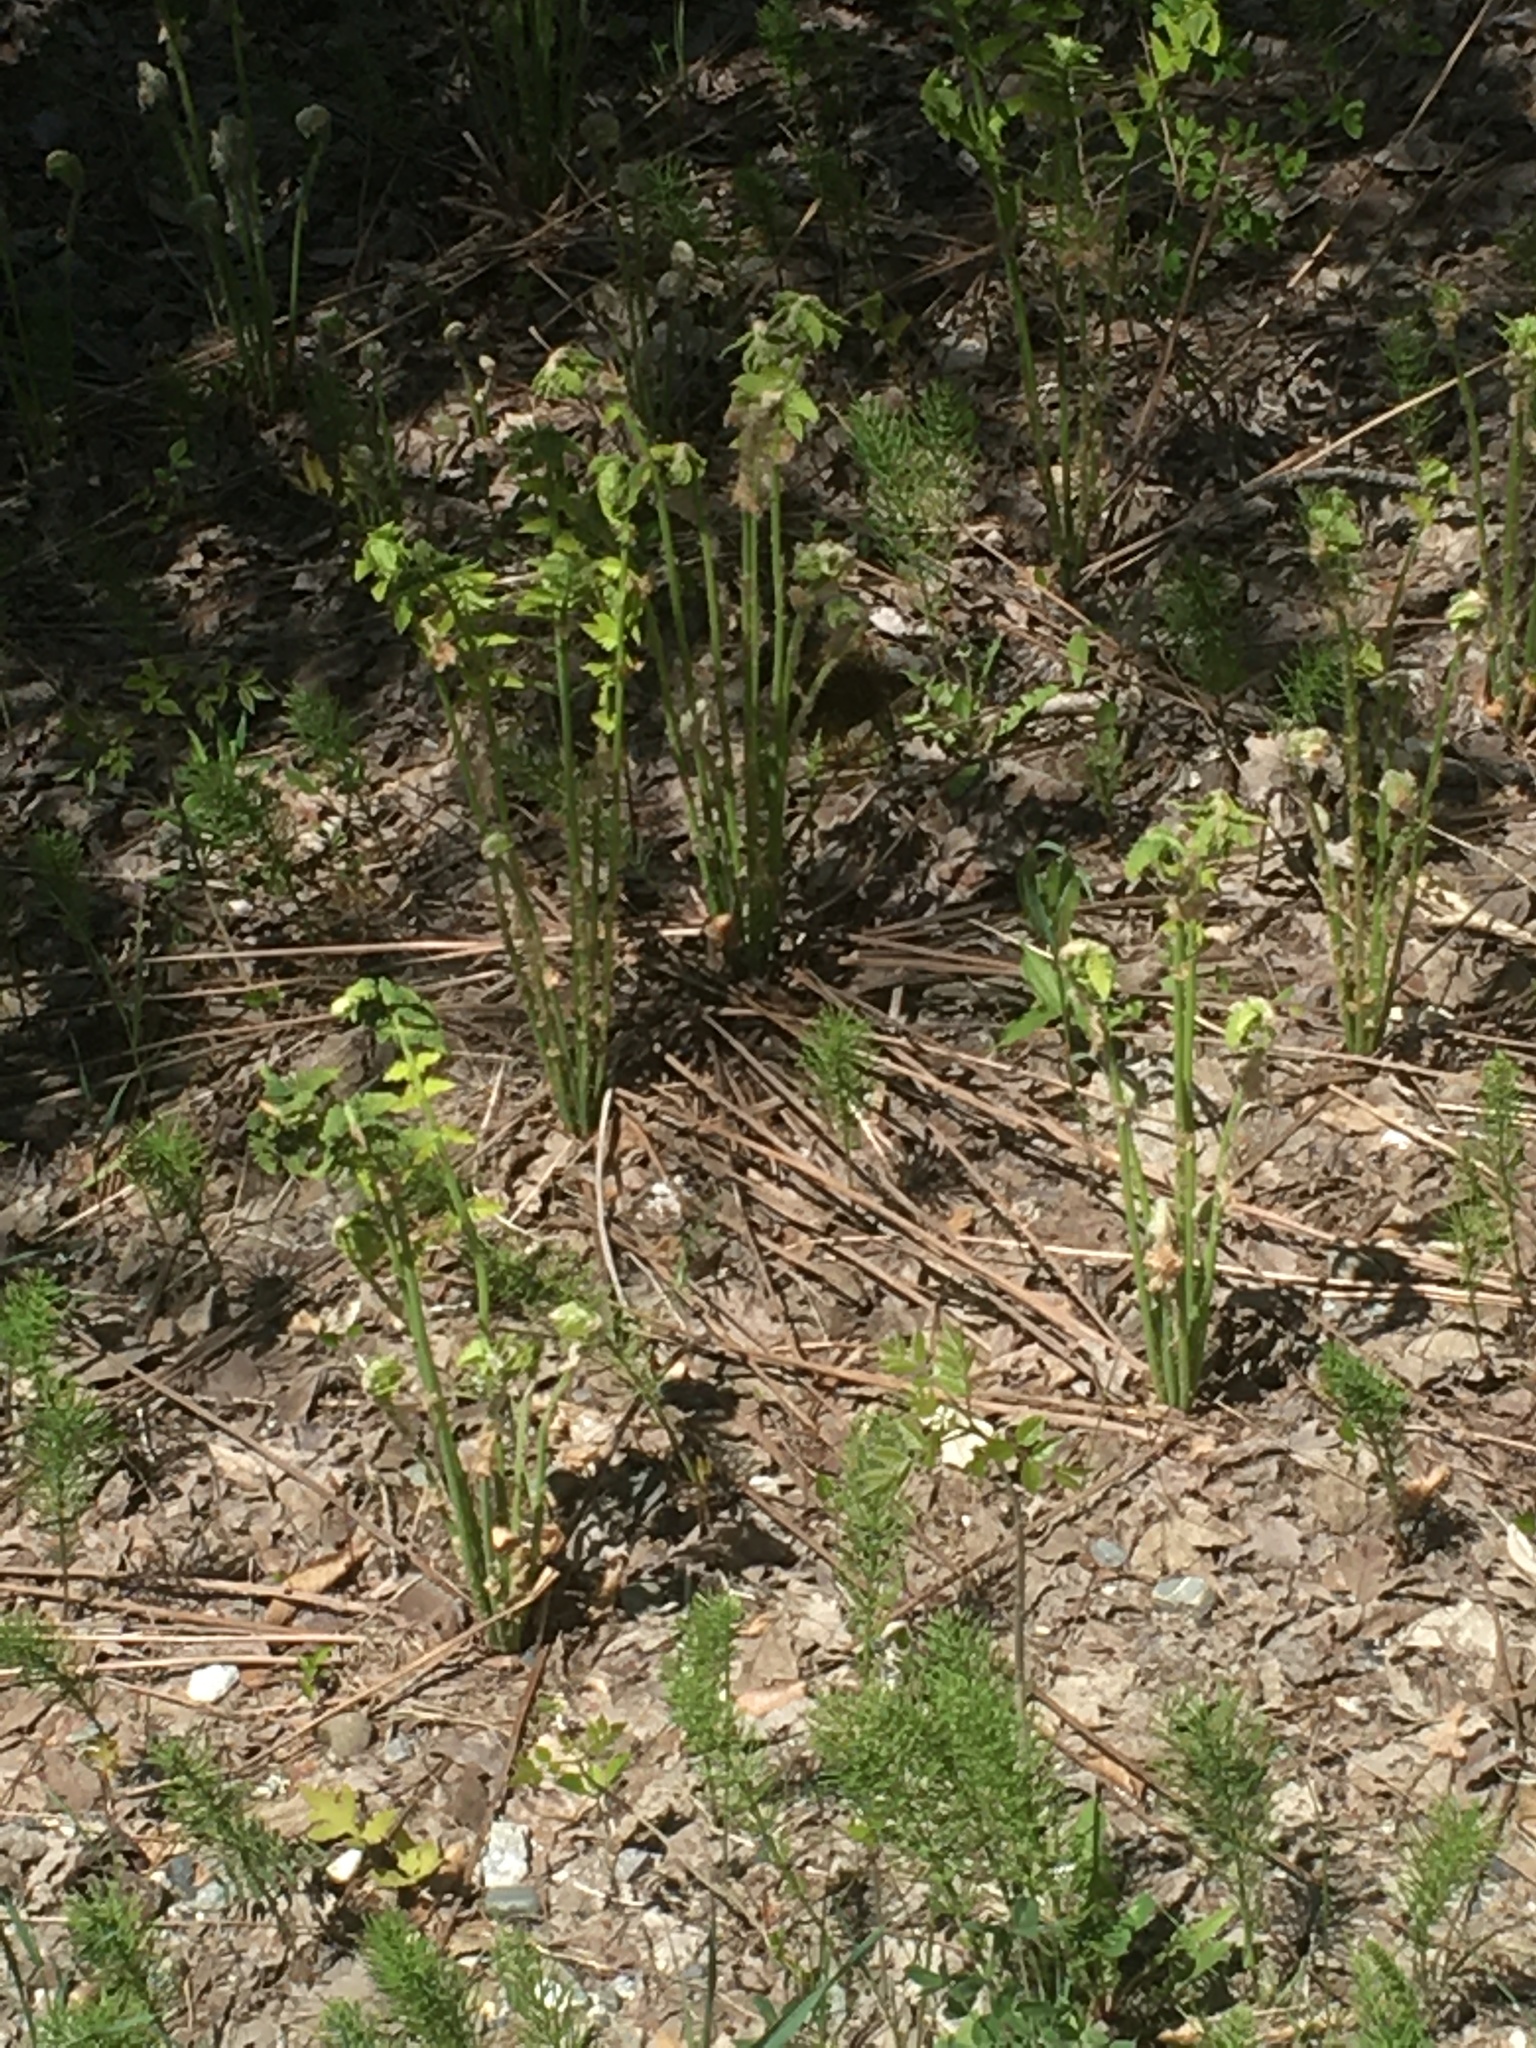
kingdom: Plantae
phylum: Tracheophyta
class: Polypodiopsida
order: Osmundales
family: Osmundaceae
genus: Claytosmunda
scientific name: Claytosmunda claytoniana
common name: Clayton's fern
